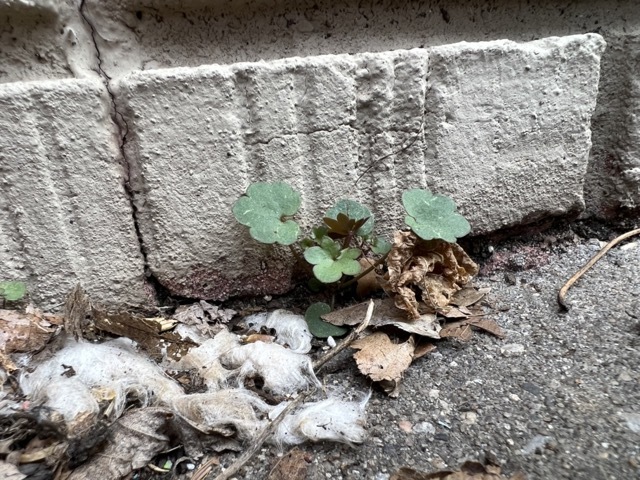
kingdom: Plantae
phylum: Tracheophyta
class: Magnoliopsida
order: Lamiales
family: Plantaginaceae
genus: Cymbalaria
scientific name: Cymbalaria muralis
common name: Ivy-leaved toadflax
